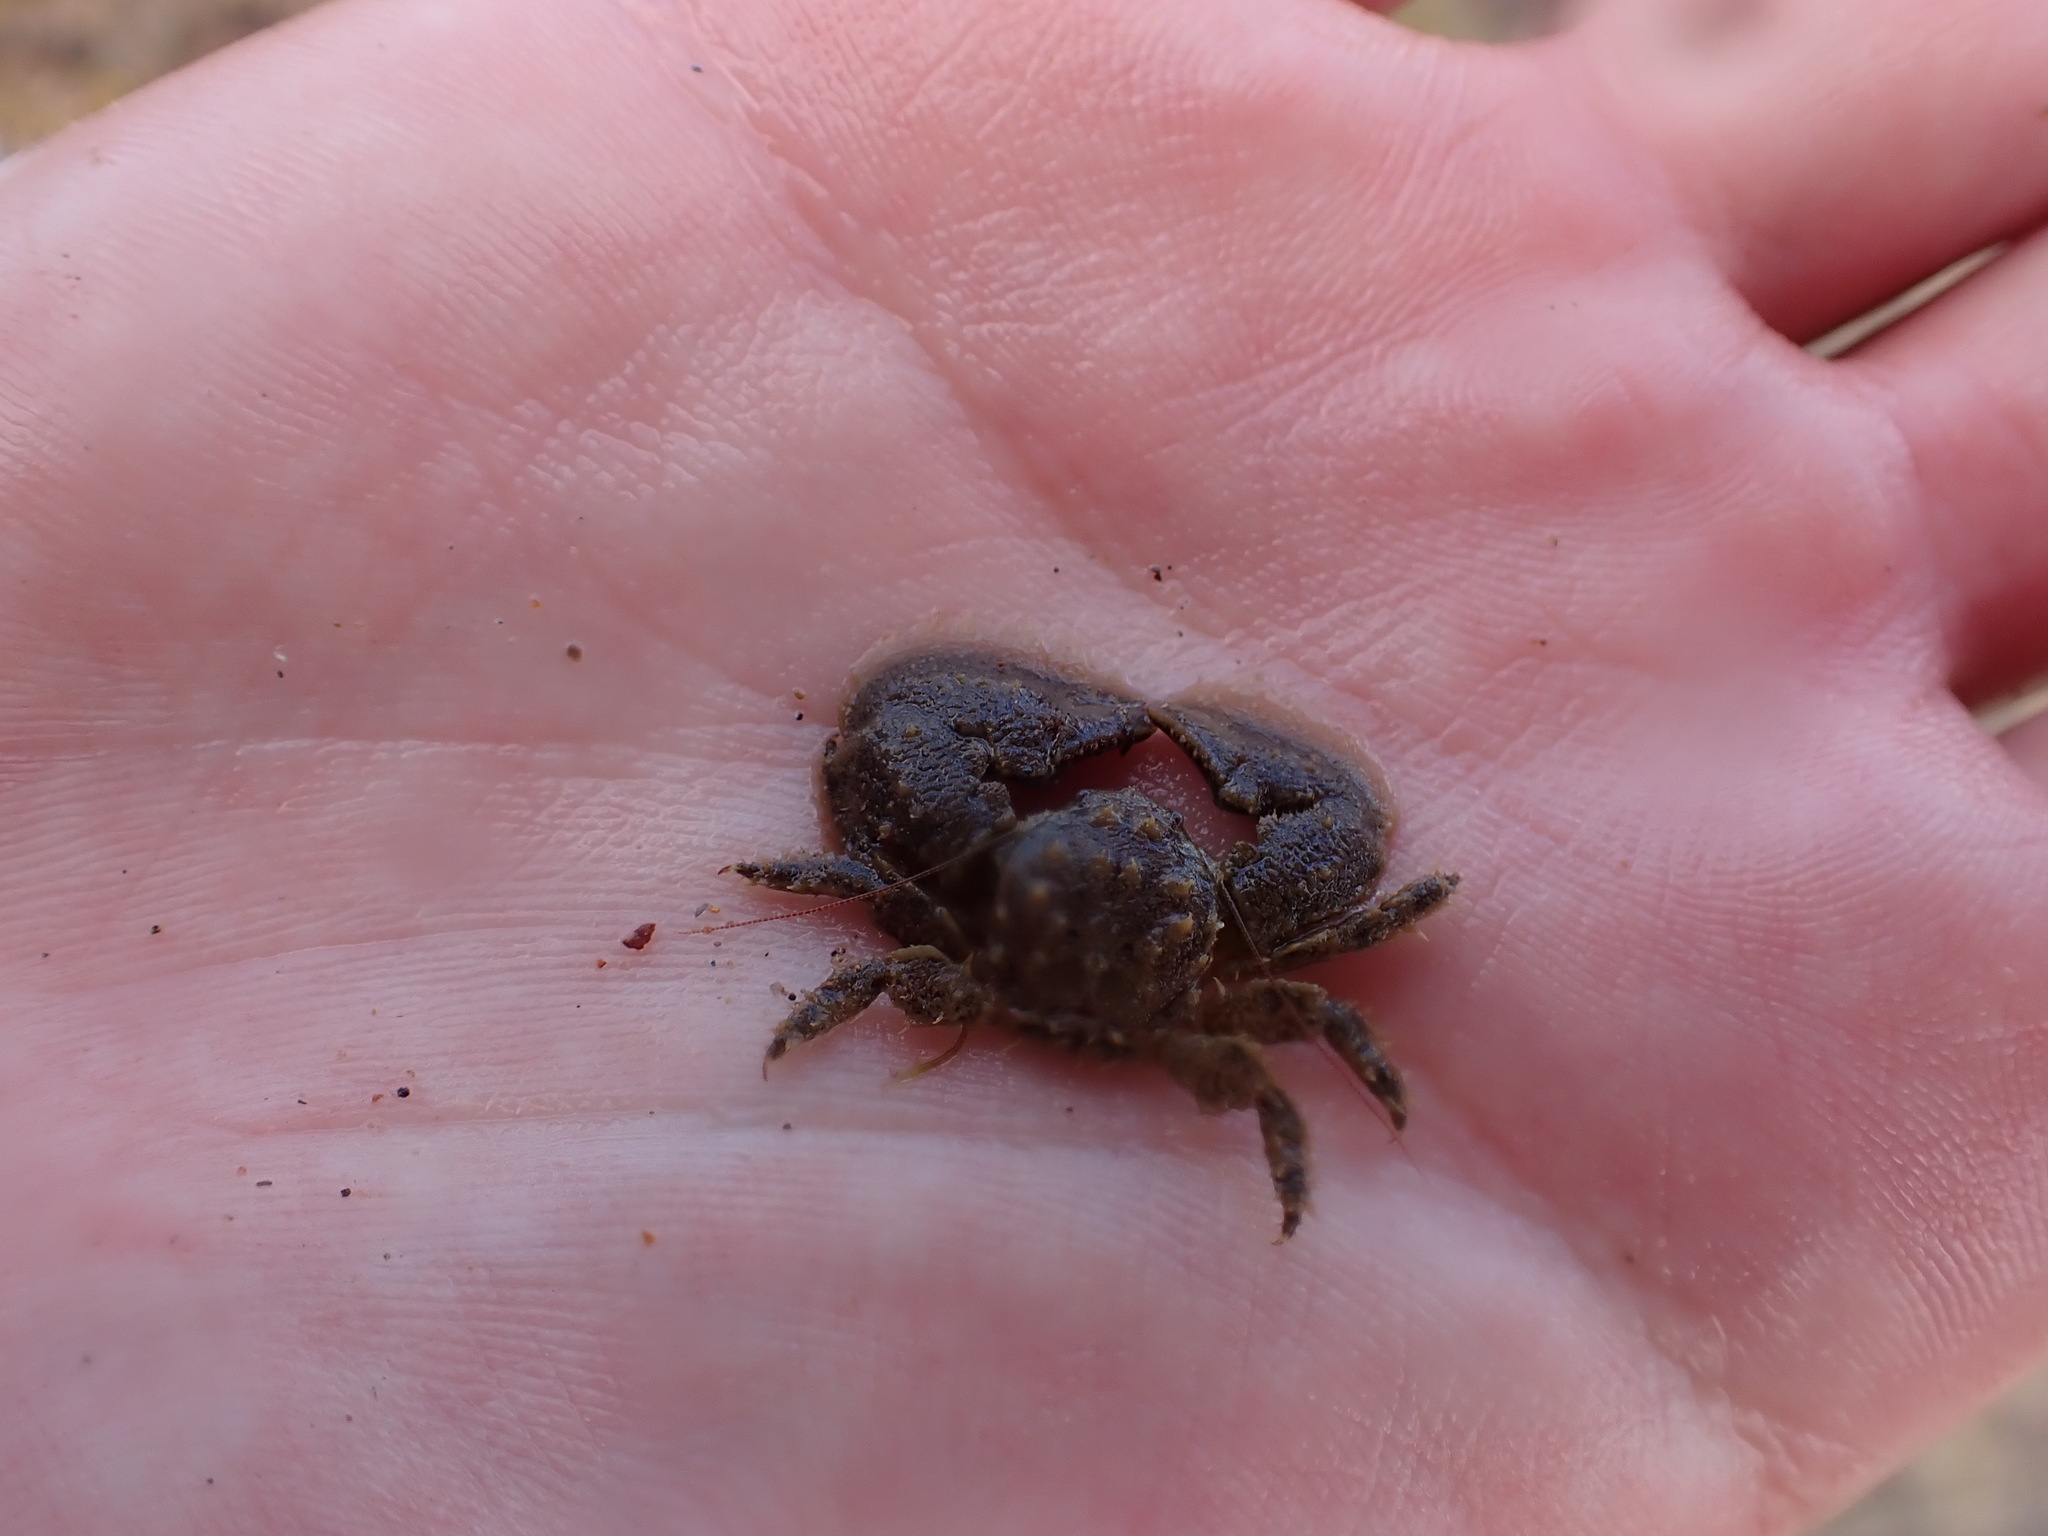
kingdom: Animalia
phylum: Arthropoda
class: Malacostraca
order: Decapoda
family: Porcellanidae
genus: Porcellana
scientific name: Porcellana platycheles
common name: Porcelain crab
